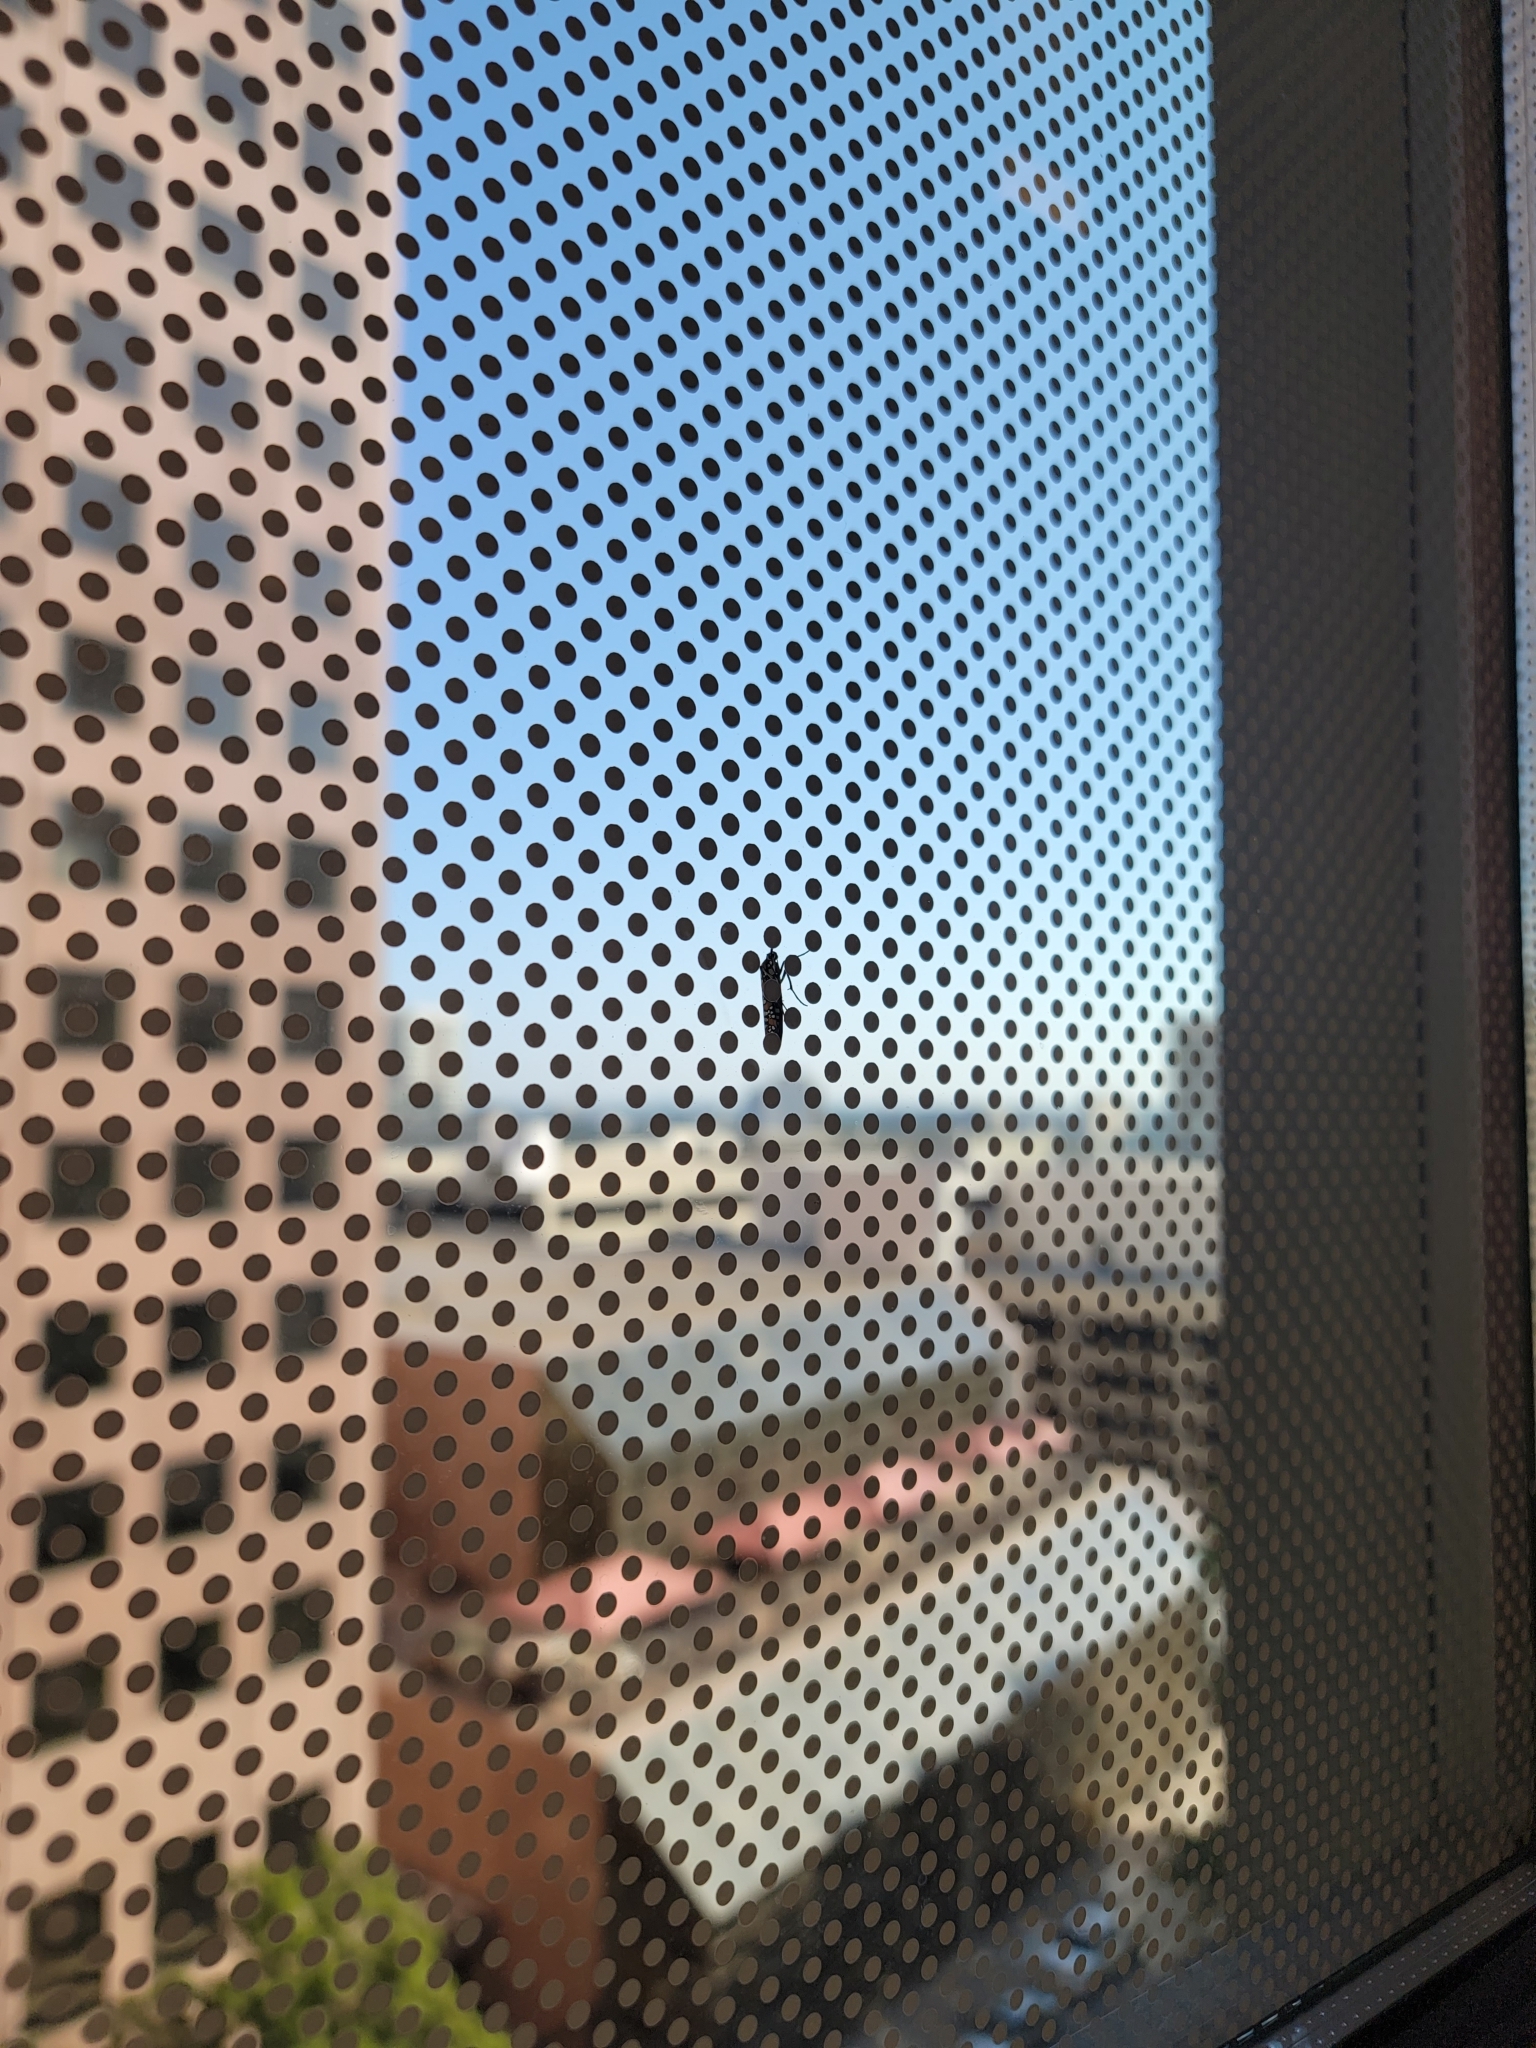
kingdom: Animalia
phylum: Arthropoda
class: Insecta
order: Lepidoptera
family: Attevidae
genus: Atteva
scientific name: Atteva punctella
